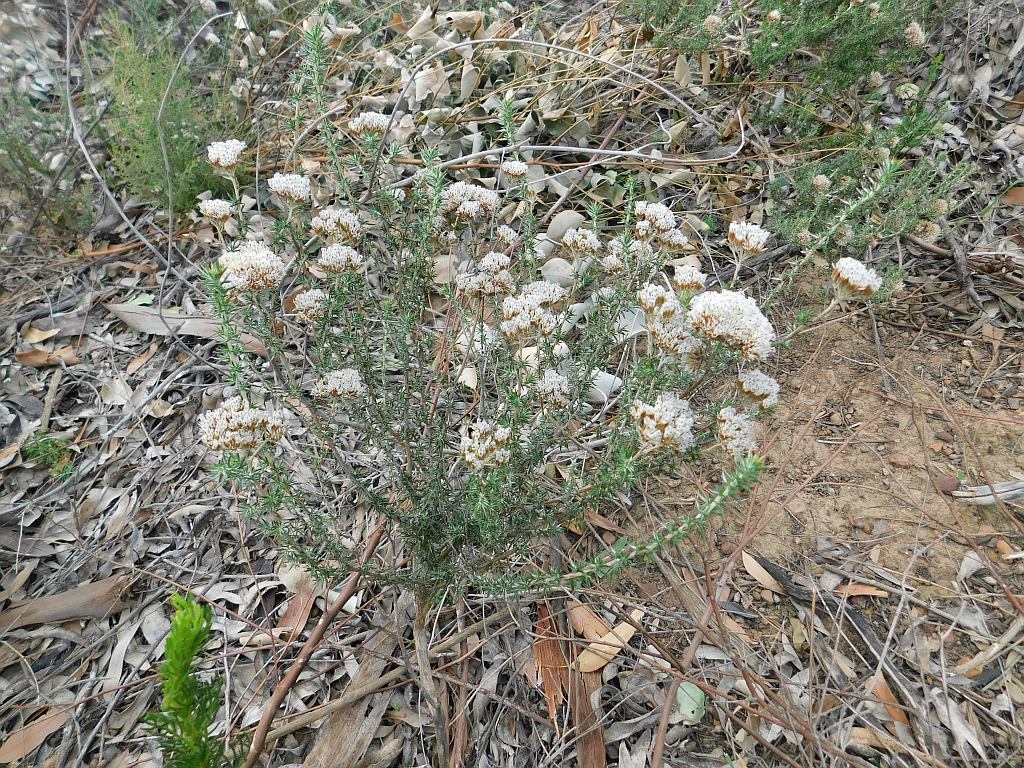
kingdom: Plantae
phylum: Tracheophyta
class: Magnoliopsida
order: Asterales
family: Asteraceae
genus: Metalasia
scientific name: Metalasia acuta
